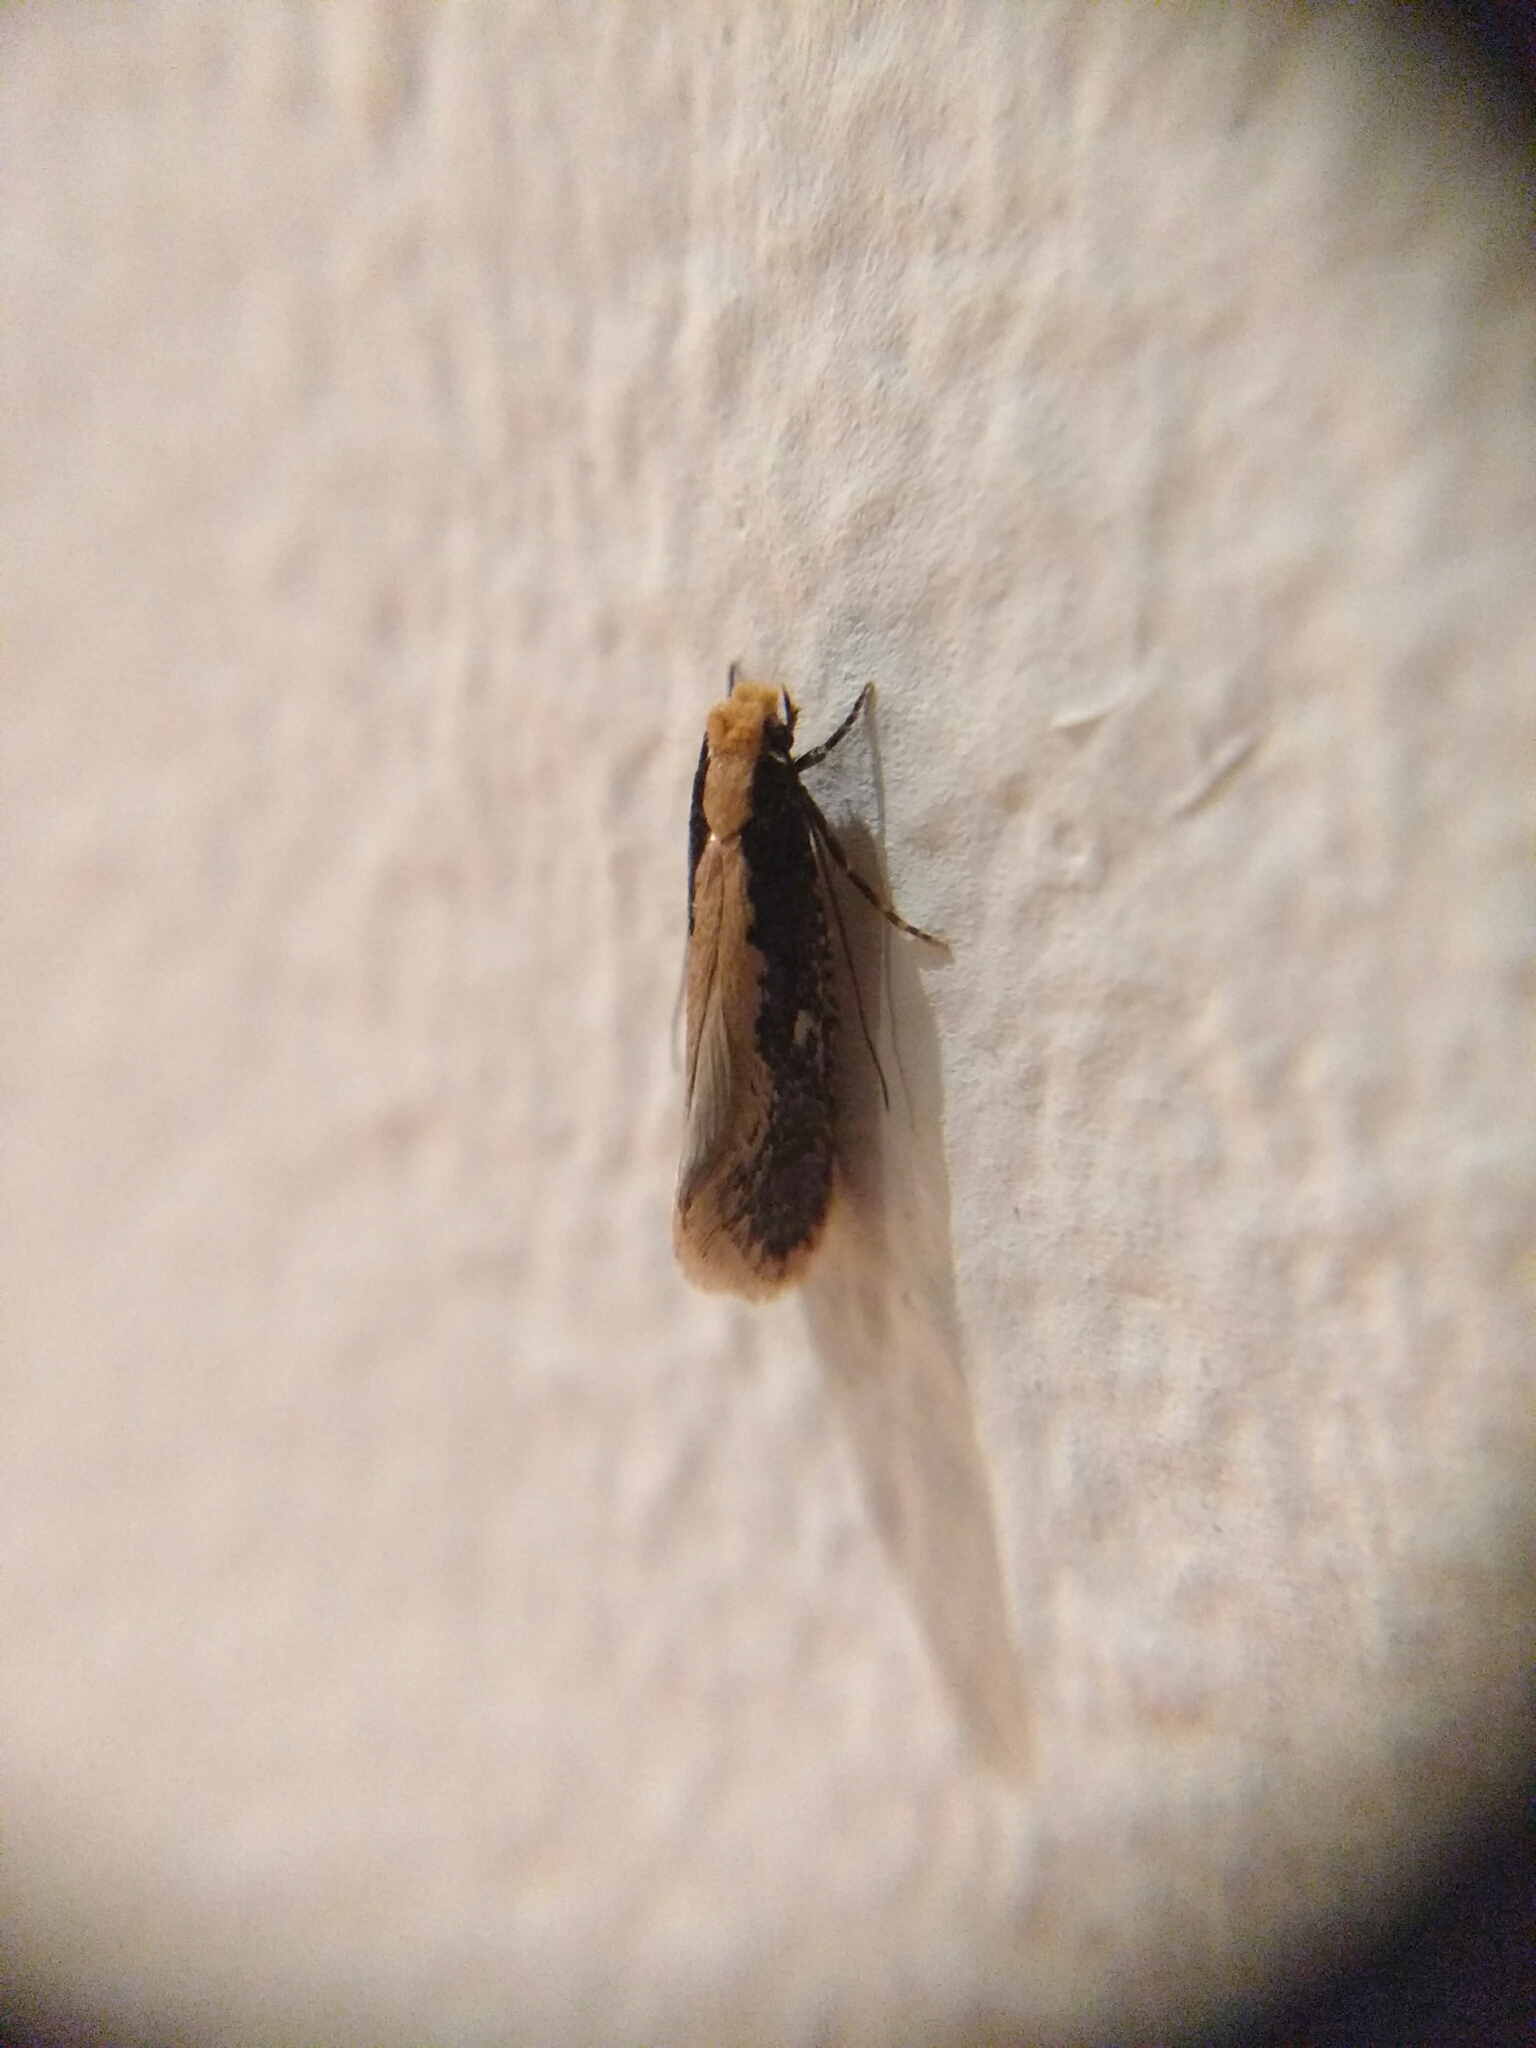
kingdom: Animalia
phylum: Arthropoda
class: Insecta
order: Lepidoptera
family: Tineidae
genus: Monopis
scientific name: Monopis crocicapitella
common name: Moth
